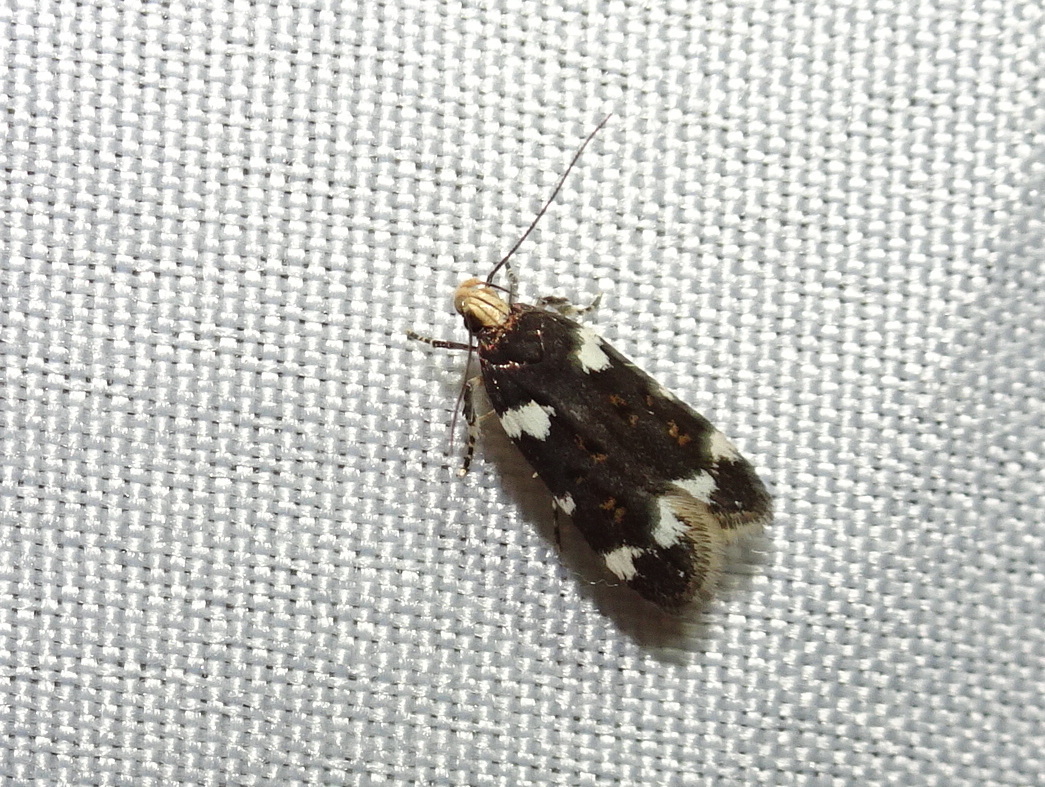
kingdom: Animalia
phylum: Arthropoda
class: Insecta
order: Lepidoptera
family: Gelechiidae
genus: Fascista
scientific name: Fascista cercerisella
